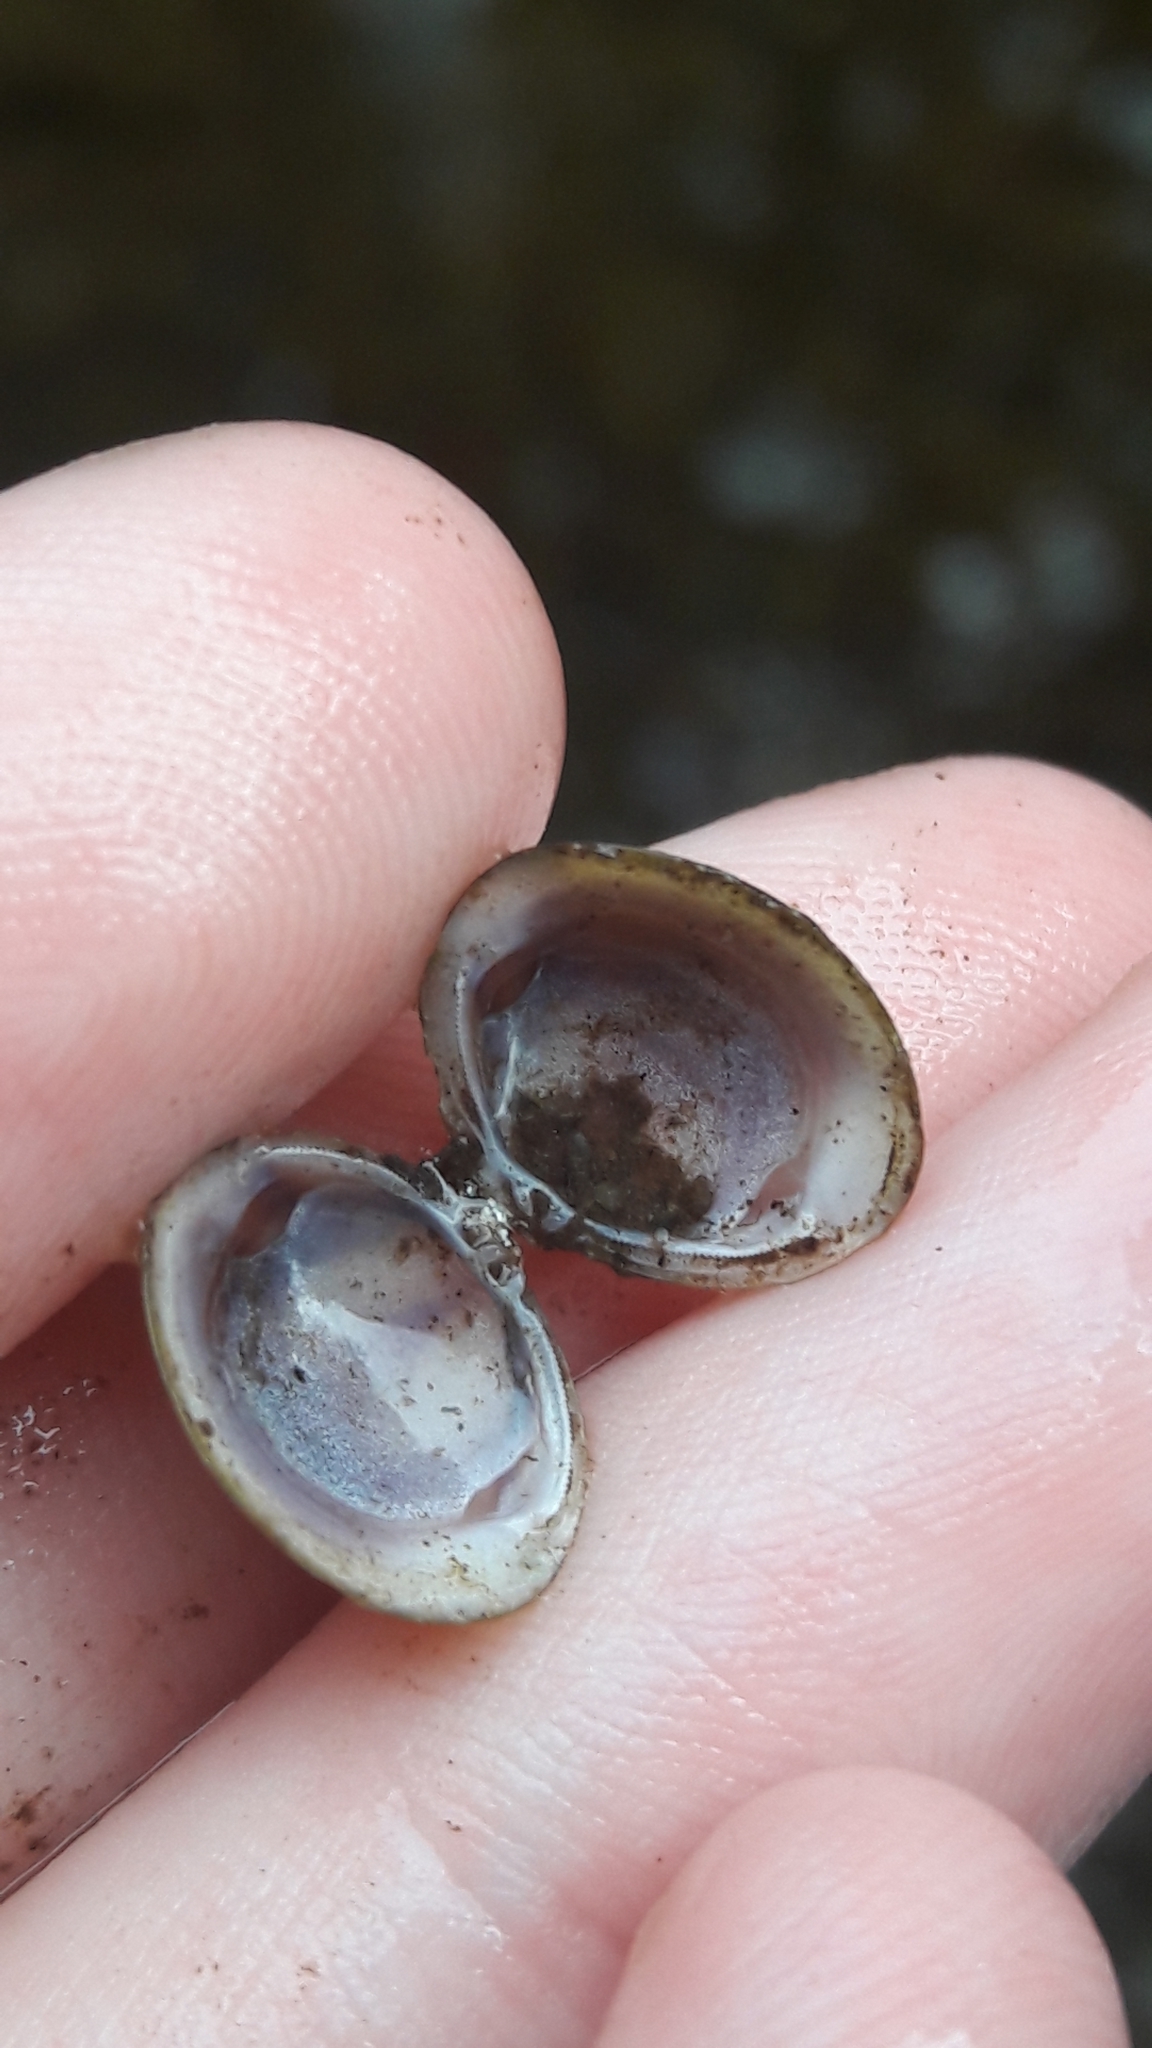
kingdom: Animalia
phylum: Mollusca
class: Bivalvia
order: Venerida
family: Cyrenidae
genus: Corbicula
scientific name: Corbicula fluminea
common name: Asian clam
